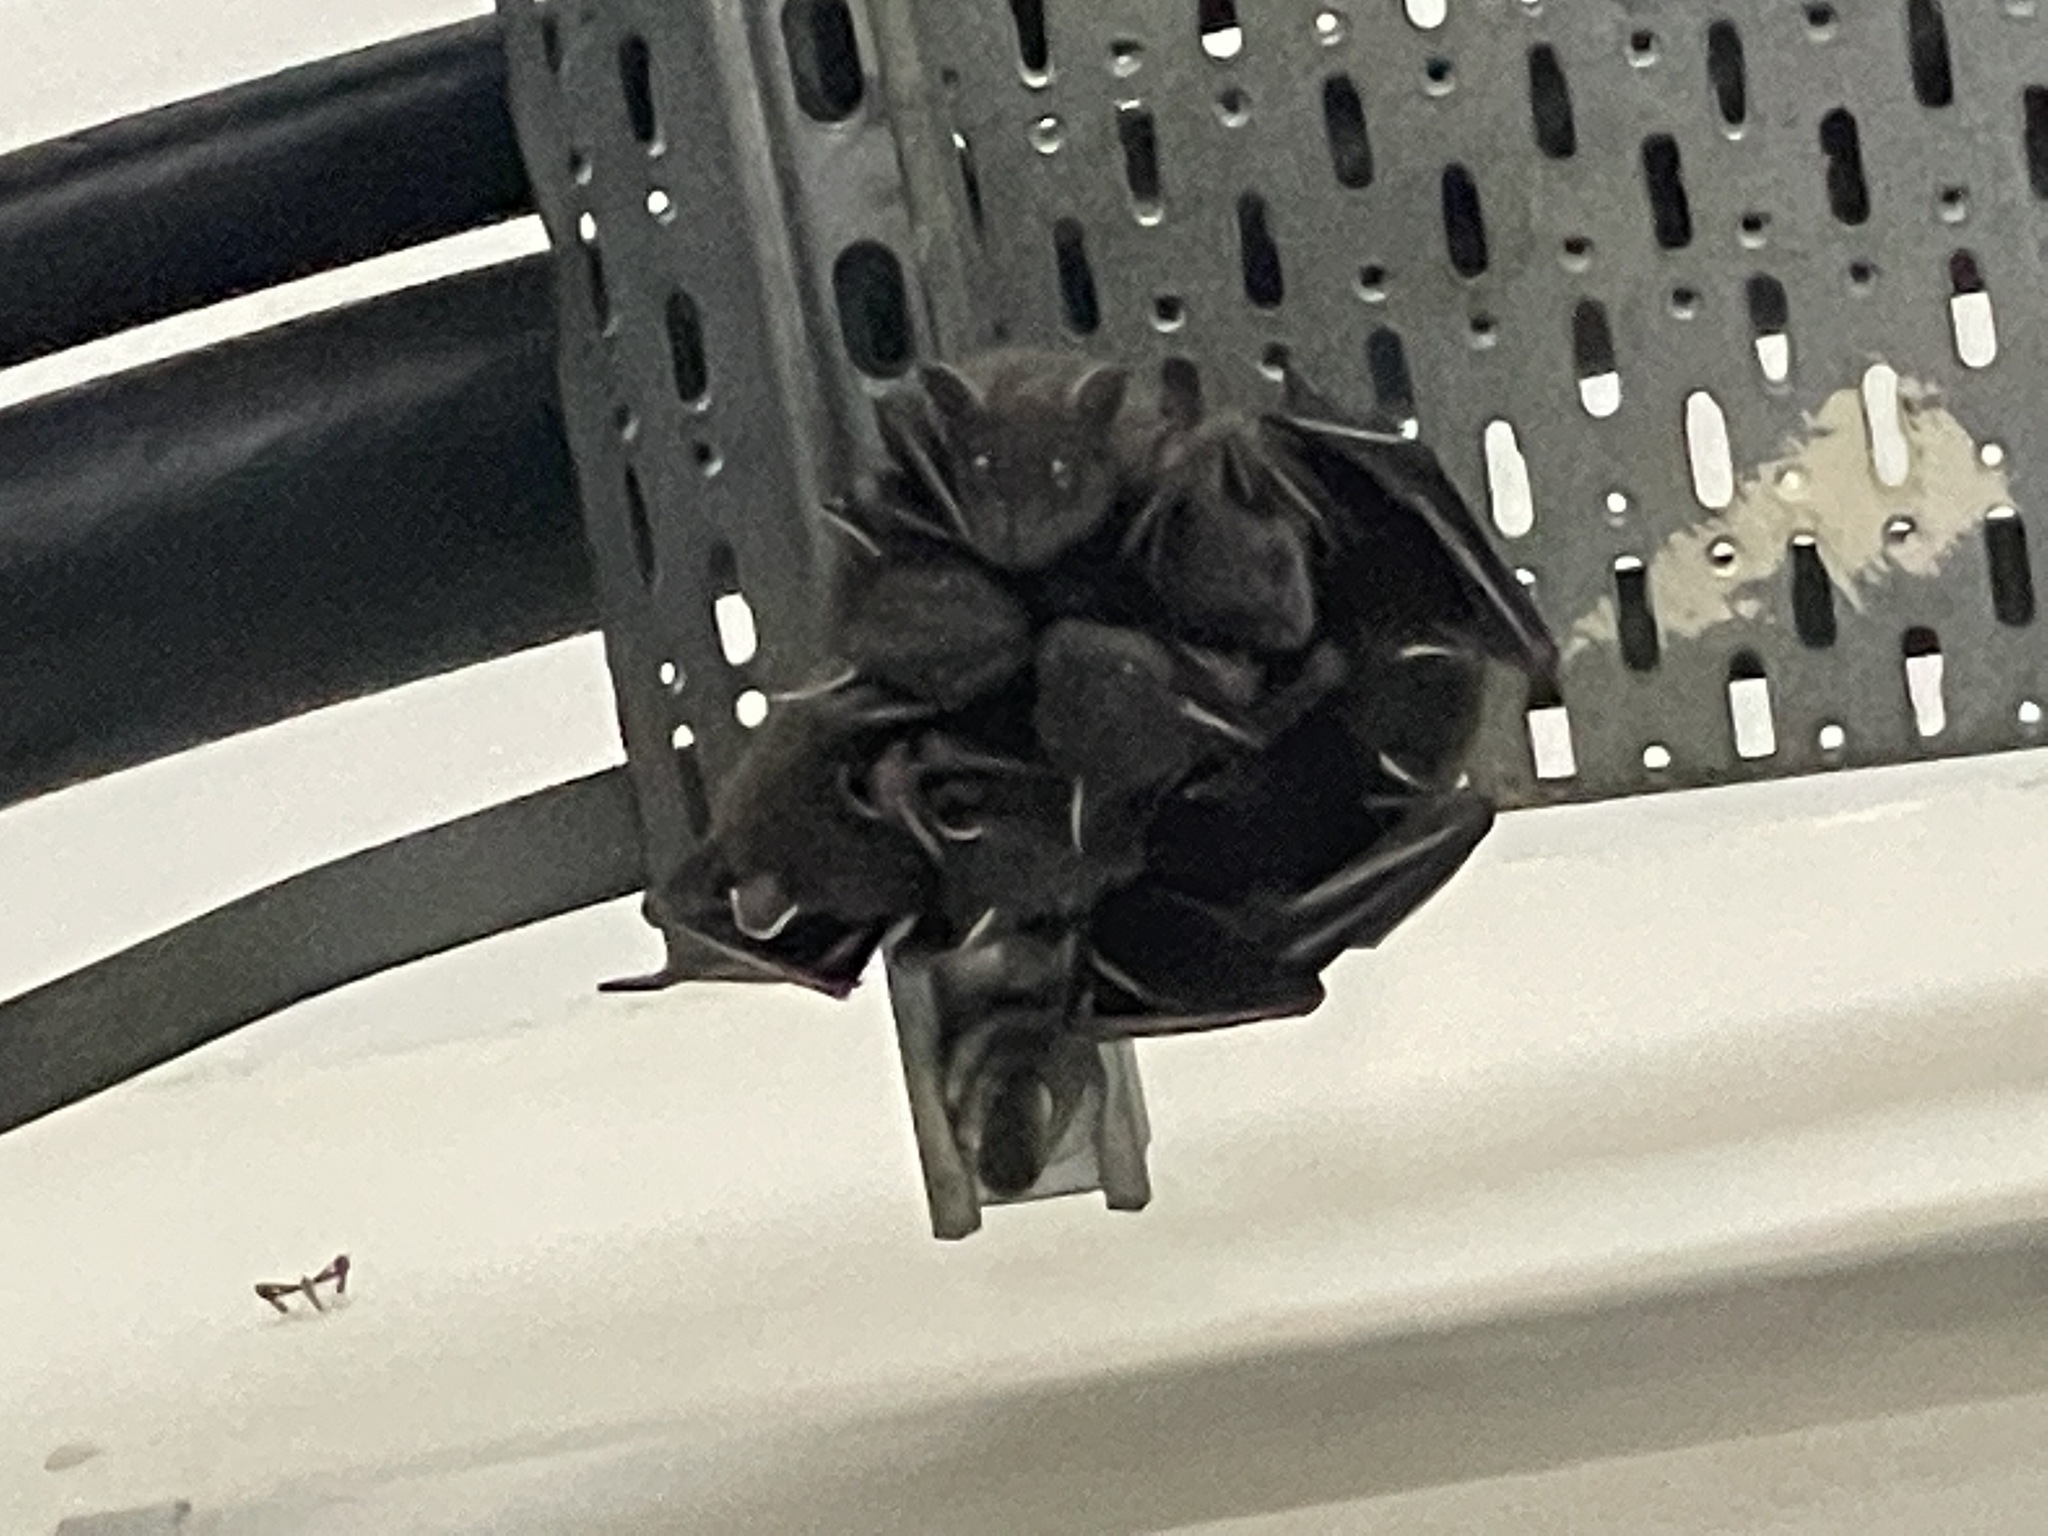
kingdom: Animalia
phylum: Chordata
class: Mammalia
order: Chiroptera
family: Pteropodidae
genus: Cynopterus
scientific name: Cynopterus sphinx
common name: Greater short-nosed fruit bat
